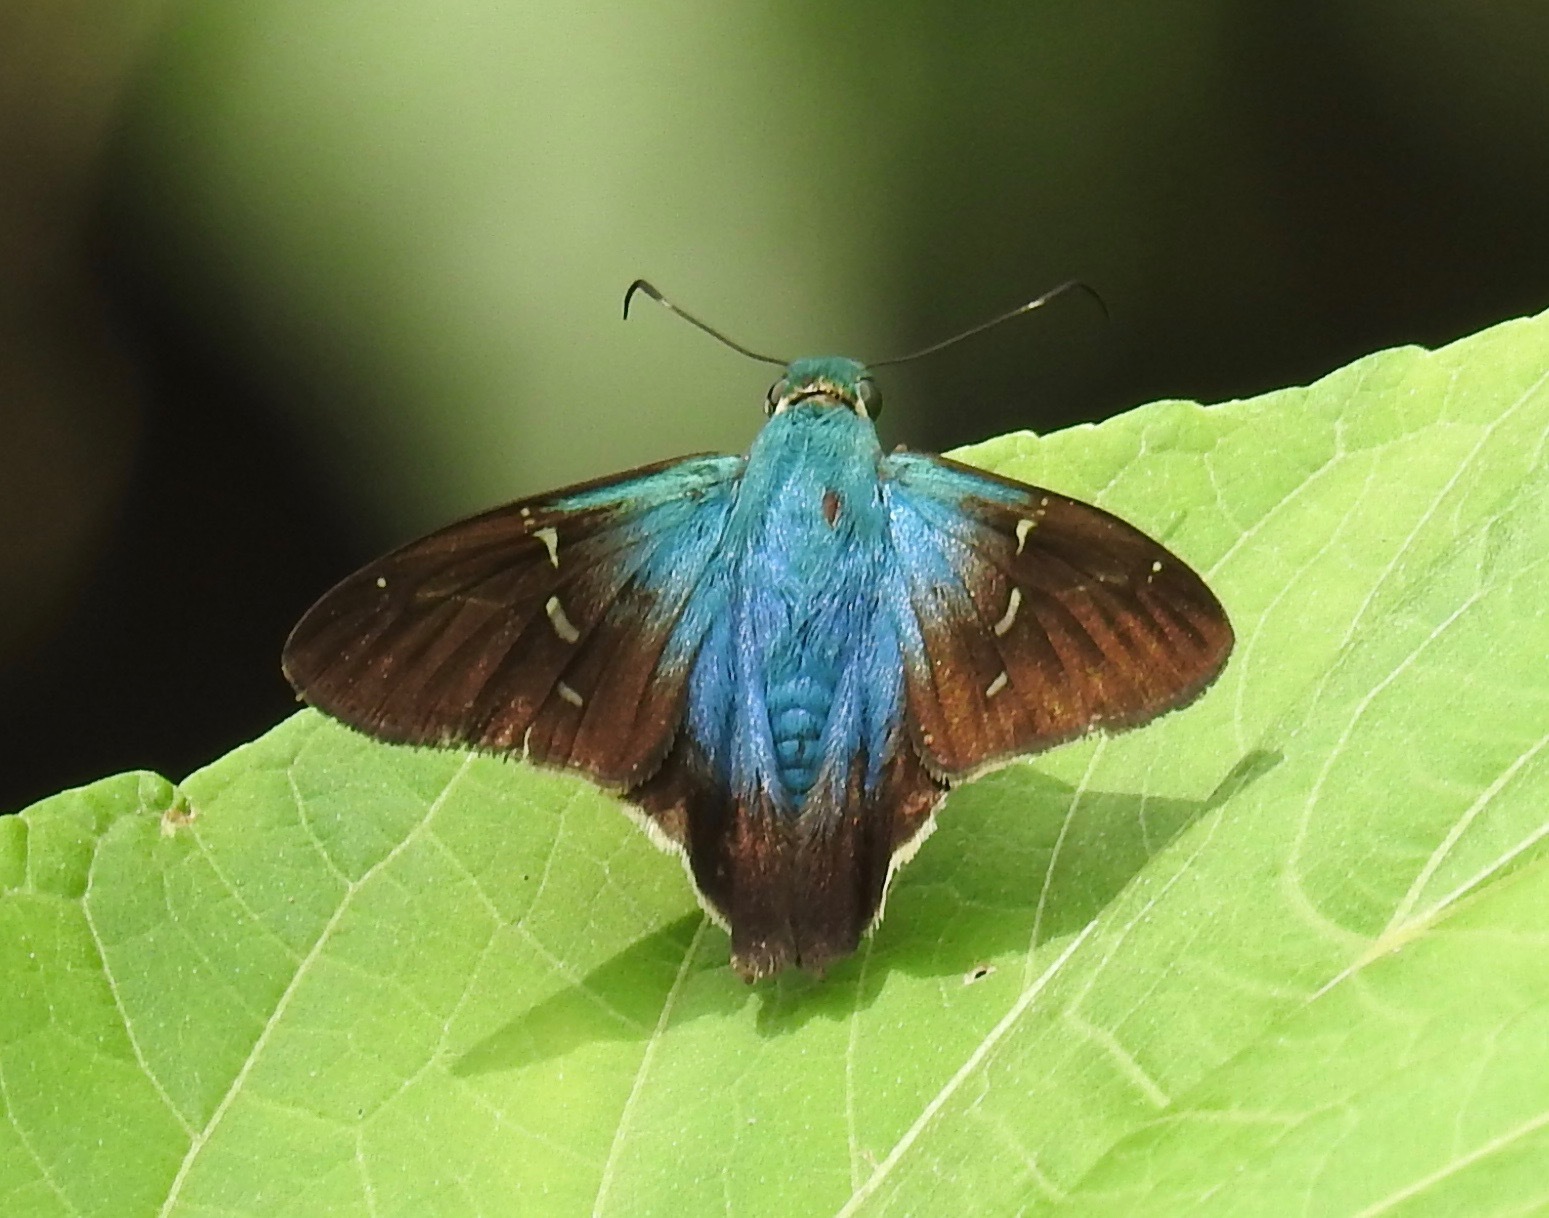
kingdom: Animalia
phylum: Arthropoda
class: Insecta
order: Lepidoptera
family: Hesperiidae
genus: Thorybes
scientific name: Thorybes egregius
